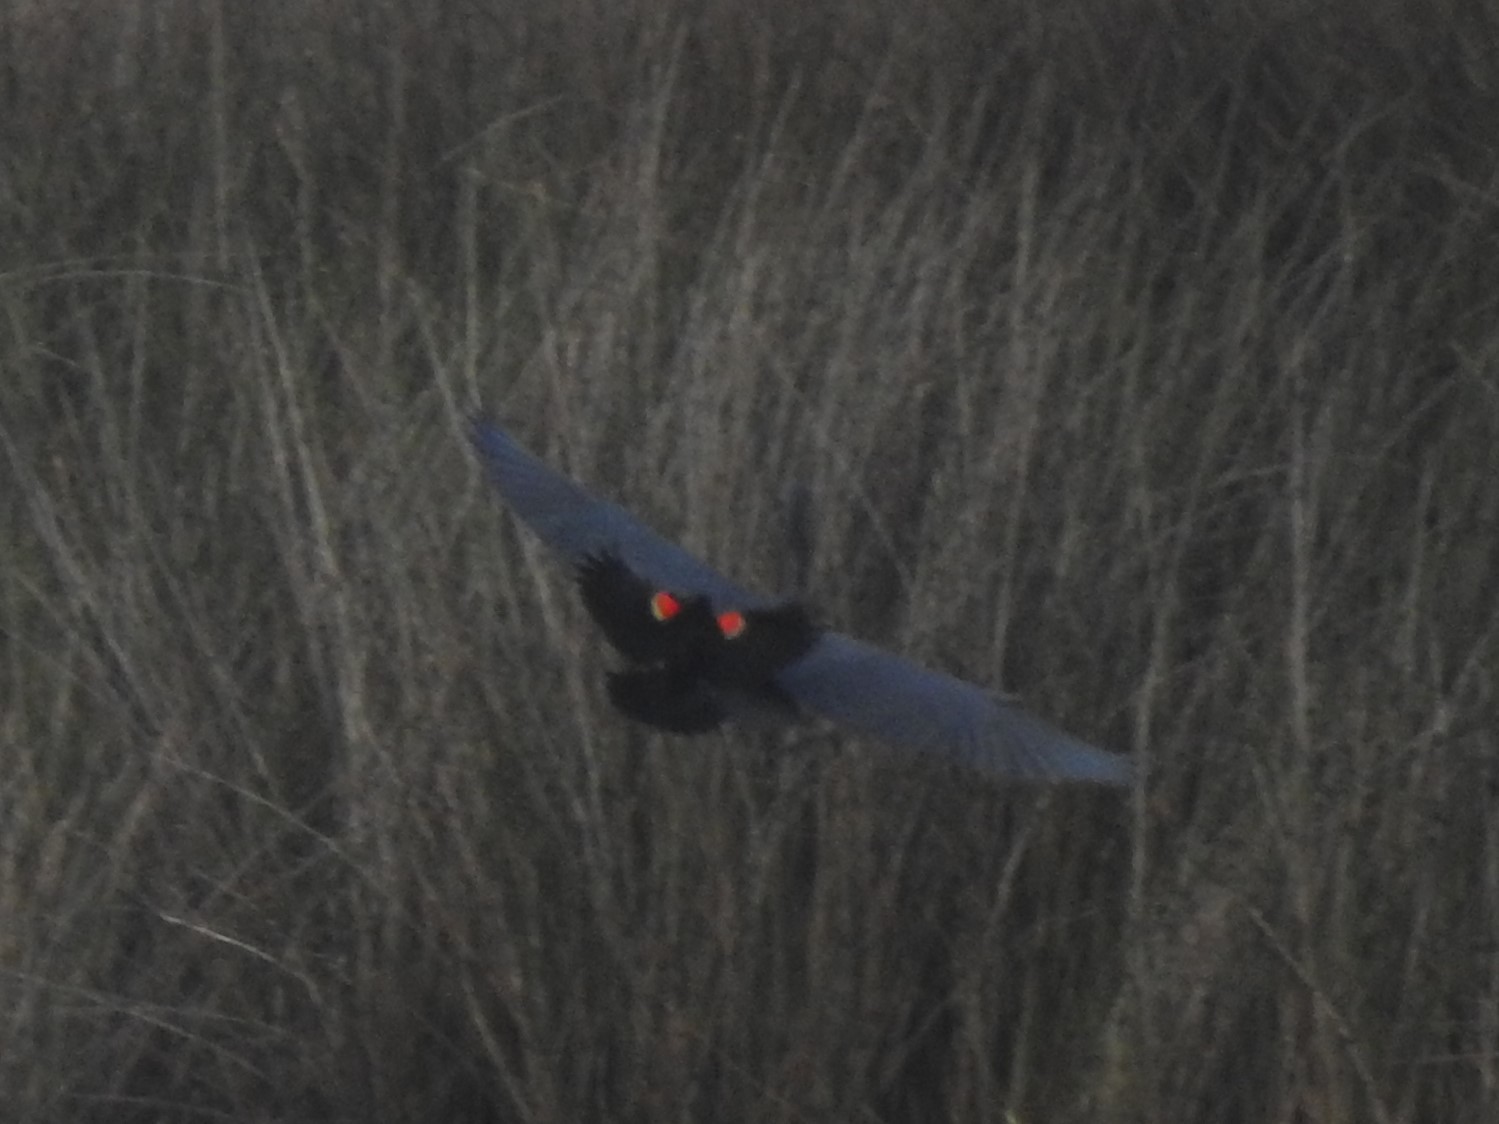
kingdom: Animalia
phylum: Chordata
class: Aves
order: Passeriformes
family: Icteridae
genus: Agelaius
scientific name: Agelaius phoeniceus
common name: Red-winged blackbird
